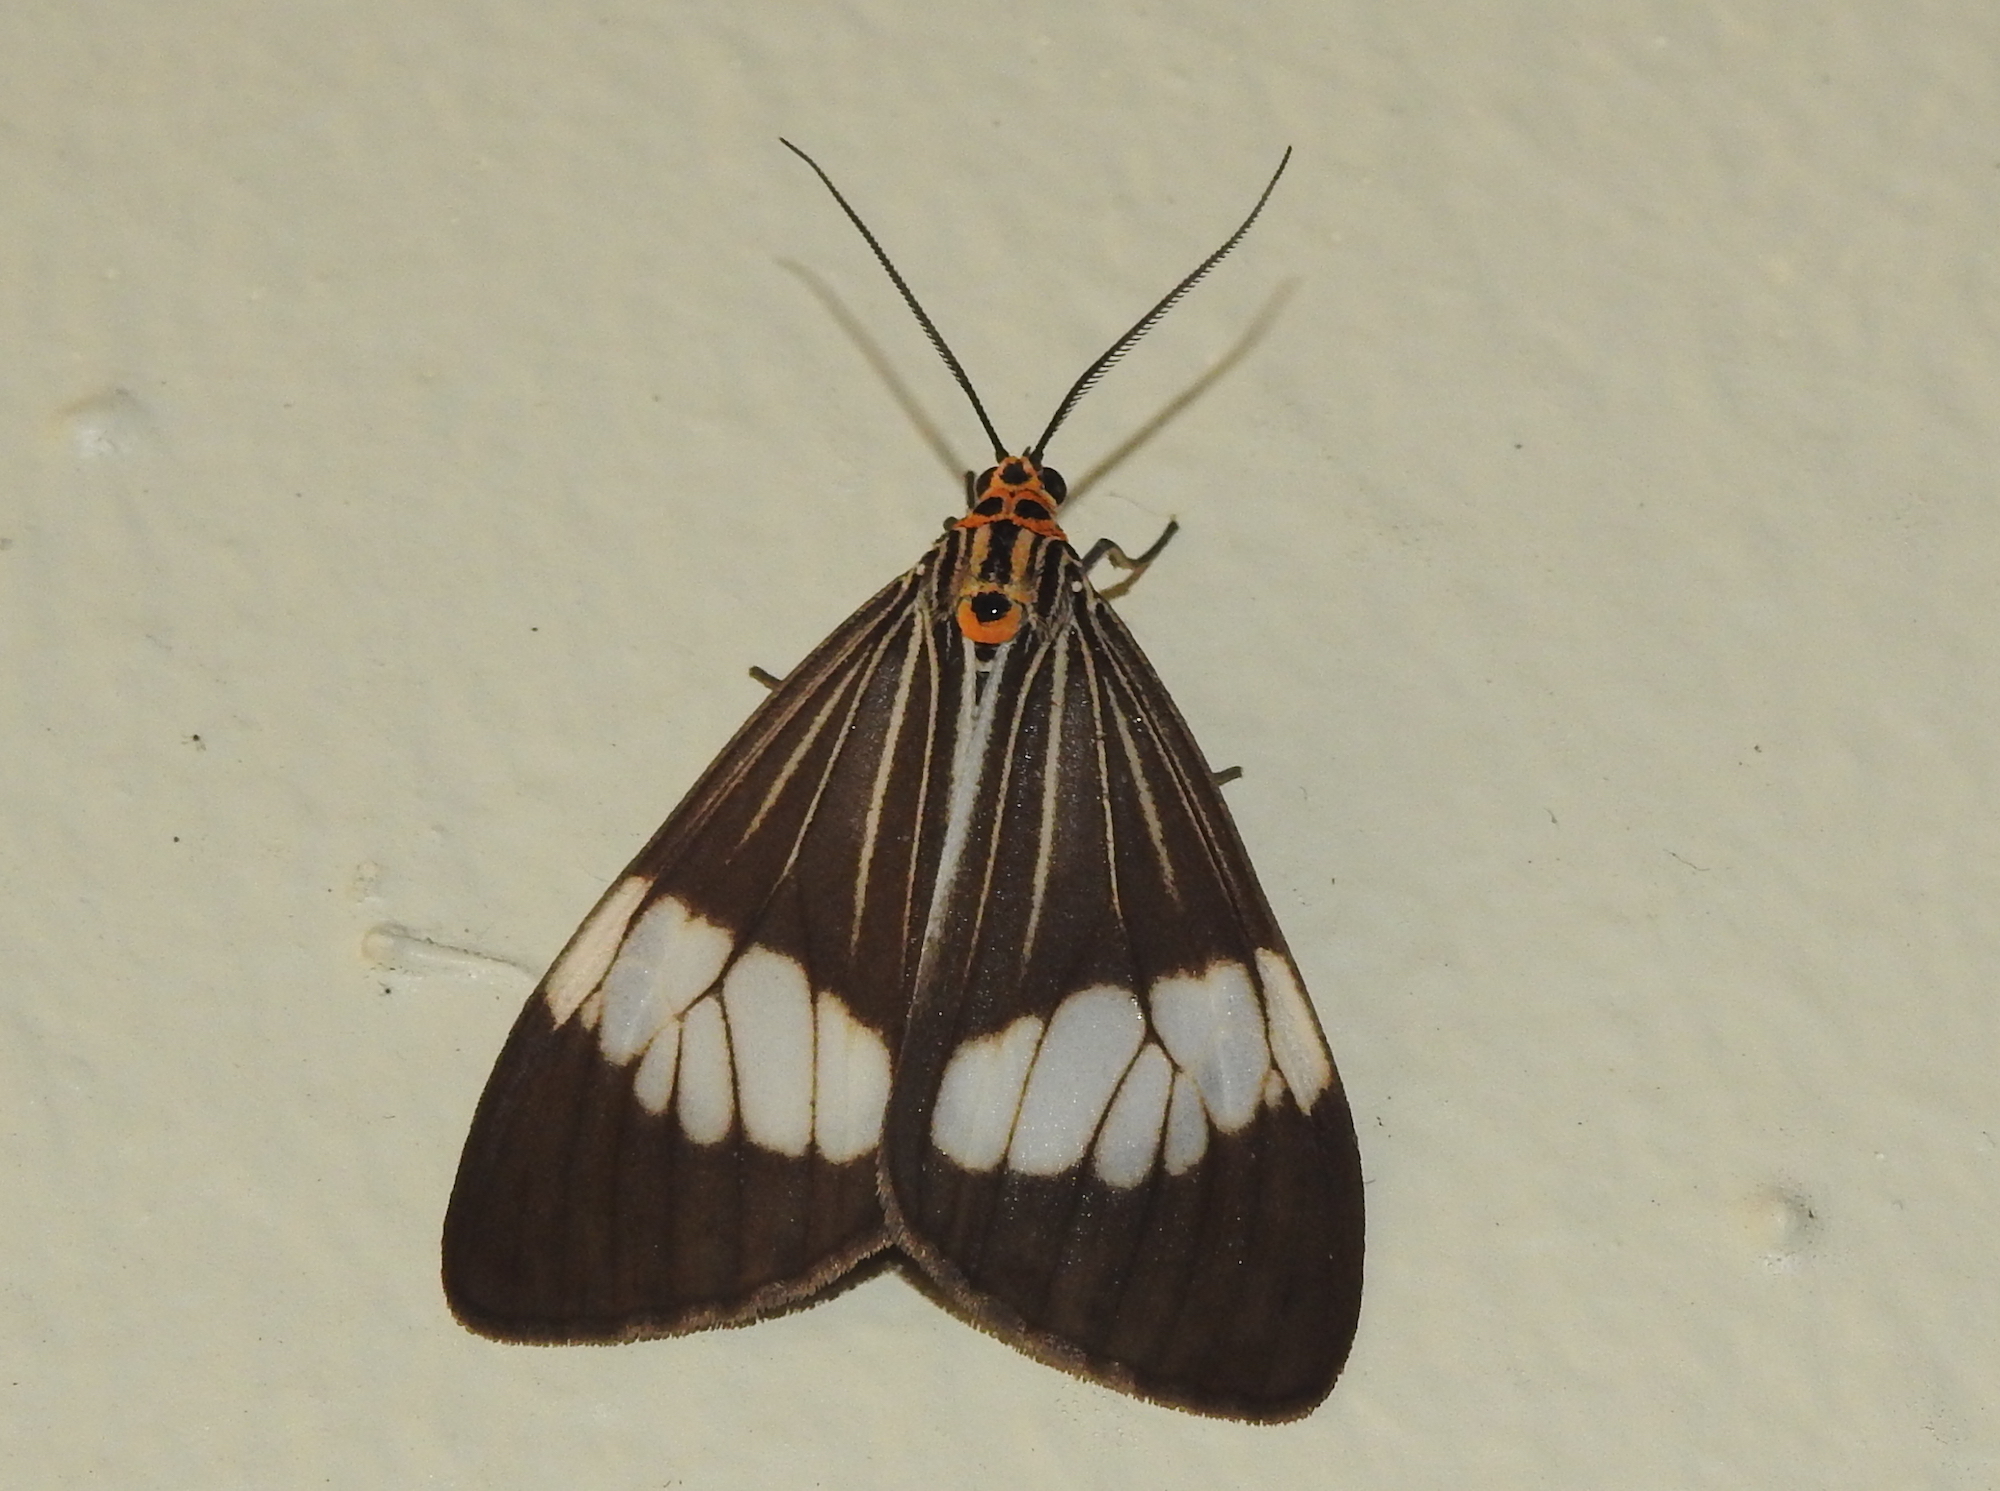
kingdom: Animalia
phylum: Arthropoda
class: Insecta
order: Lepidoptera
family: Erebidae
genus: Nyctemera
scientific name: Nyctemera baulus
